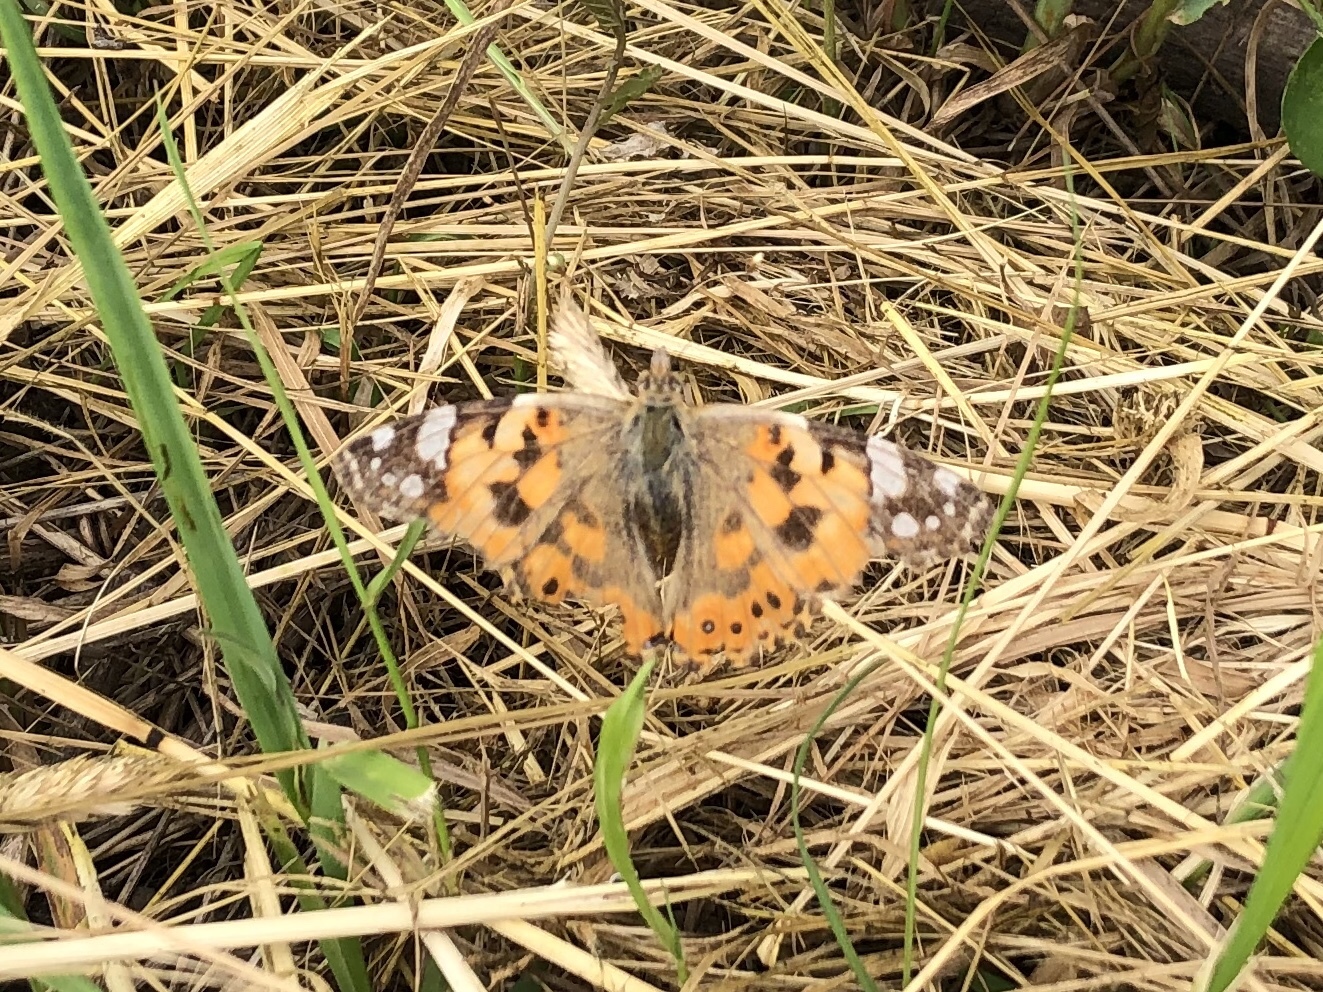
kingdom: Animalia
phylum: Arthropoda
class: Insecta
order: Lepidoptera
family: Nymphalidae
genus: Vanessa
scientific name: Vanessa cardui
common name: Painted lady
